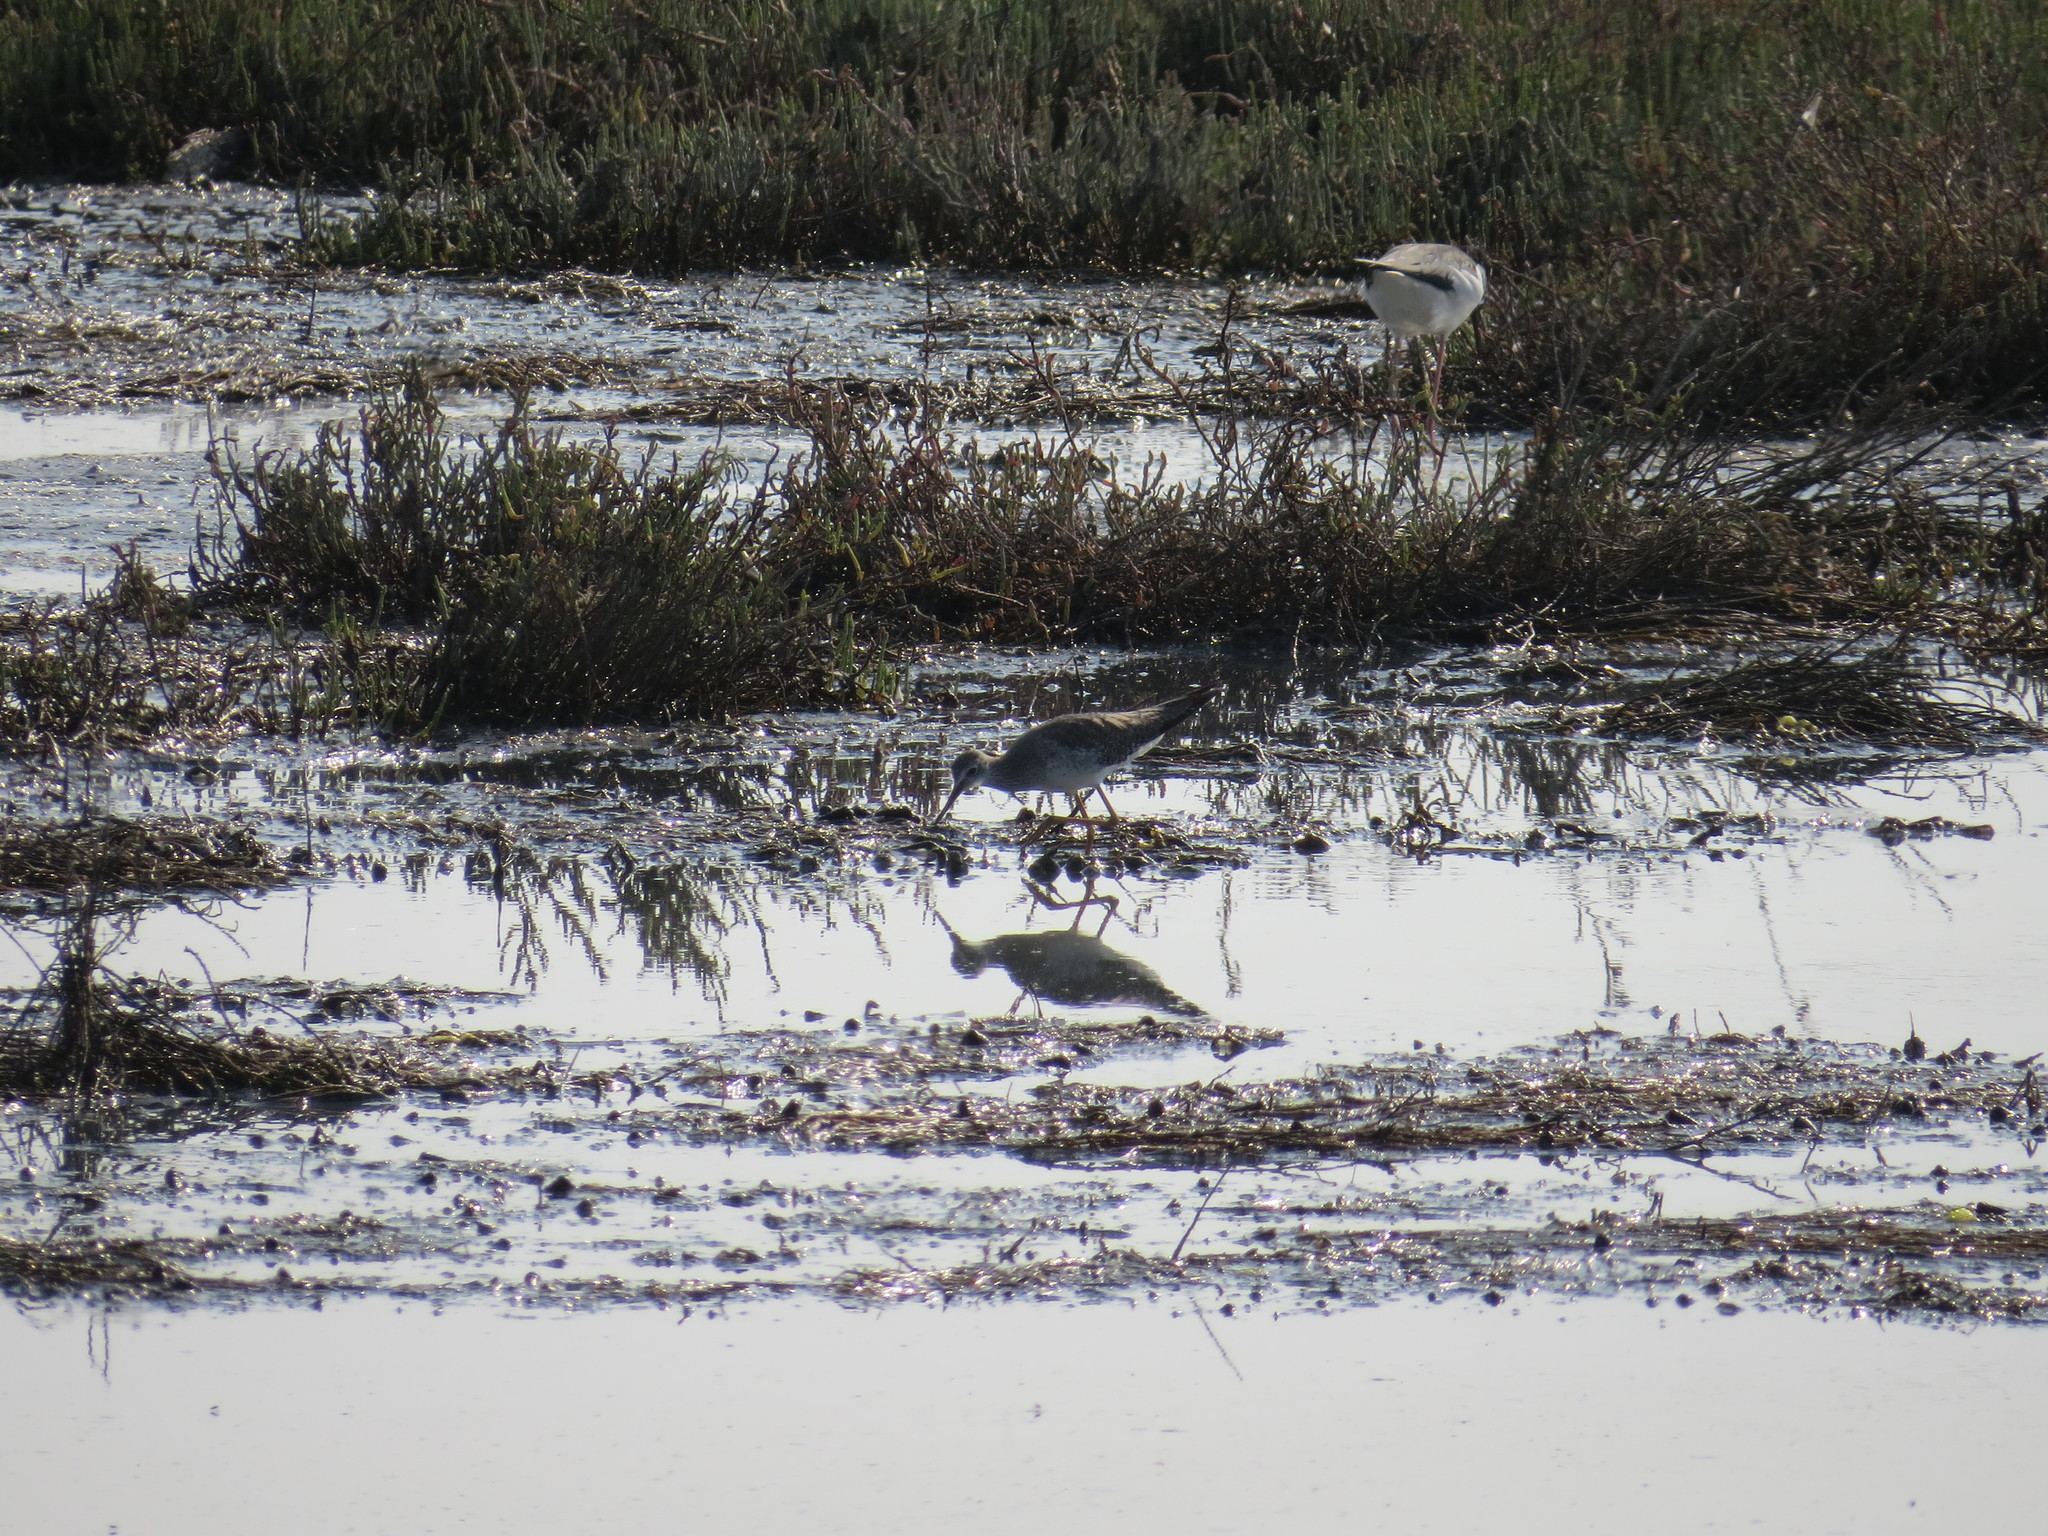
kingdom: Animalia
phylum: Chordata
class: Aves
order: Charadriiformes
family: Scolopacidae
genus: Tringa
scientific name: Tringa melanoleuca
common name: Greater yellowlegs
